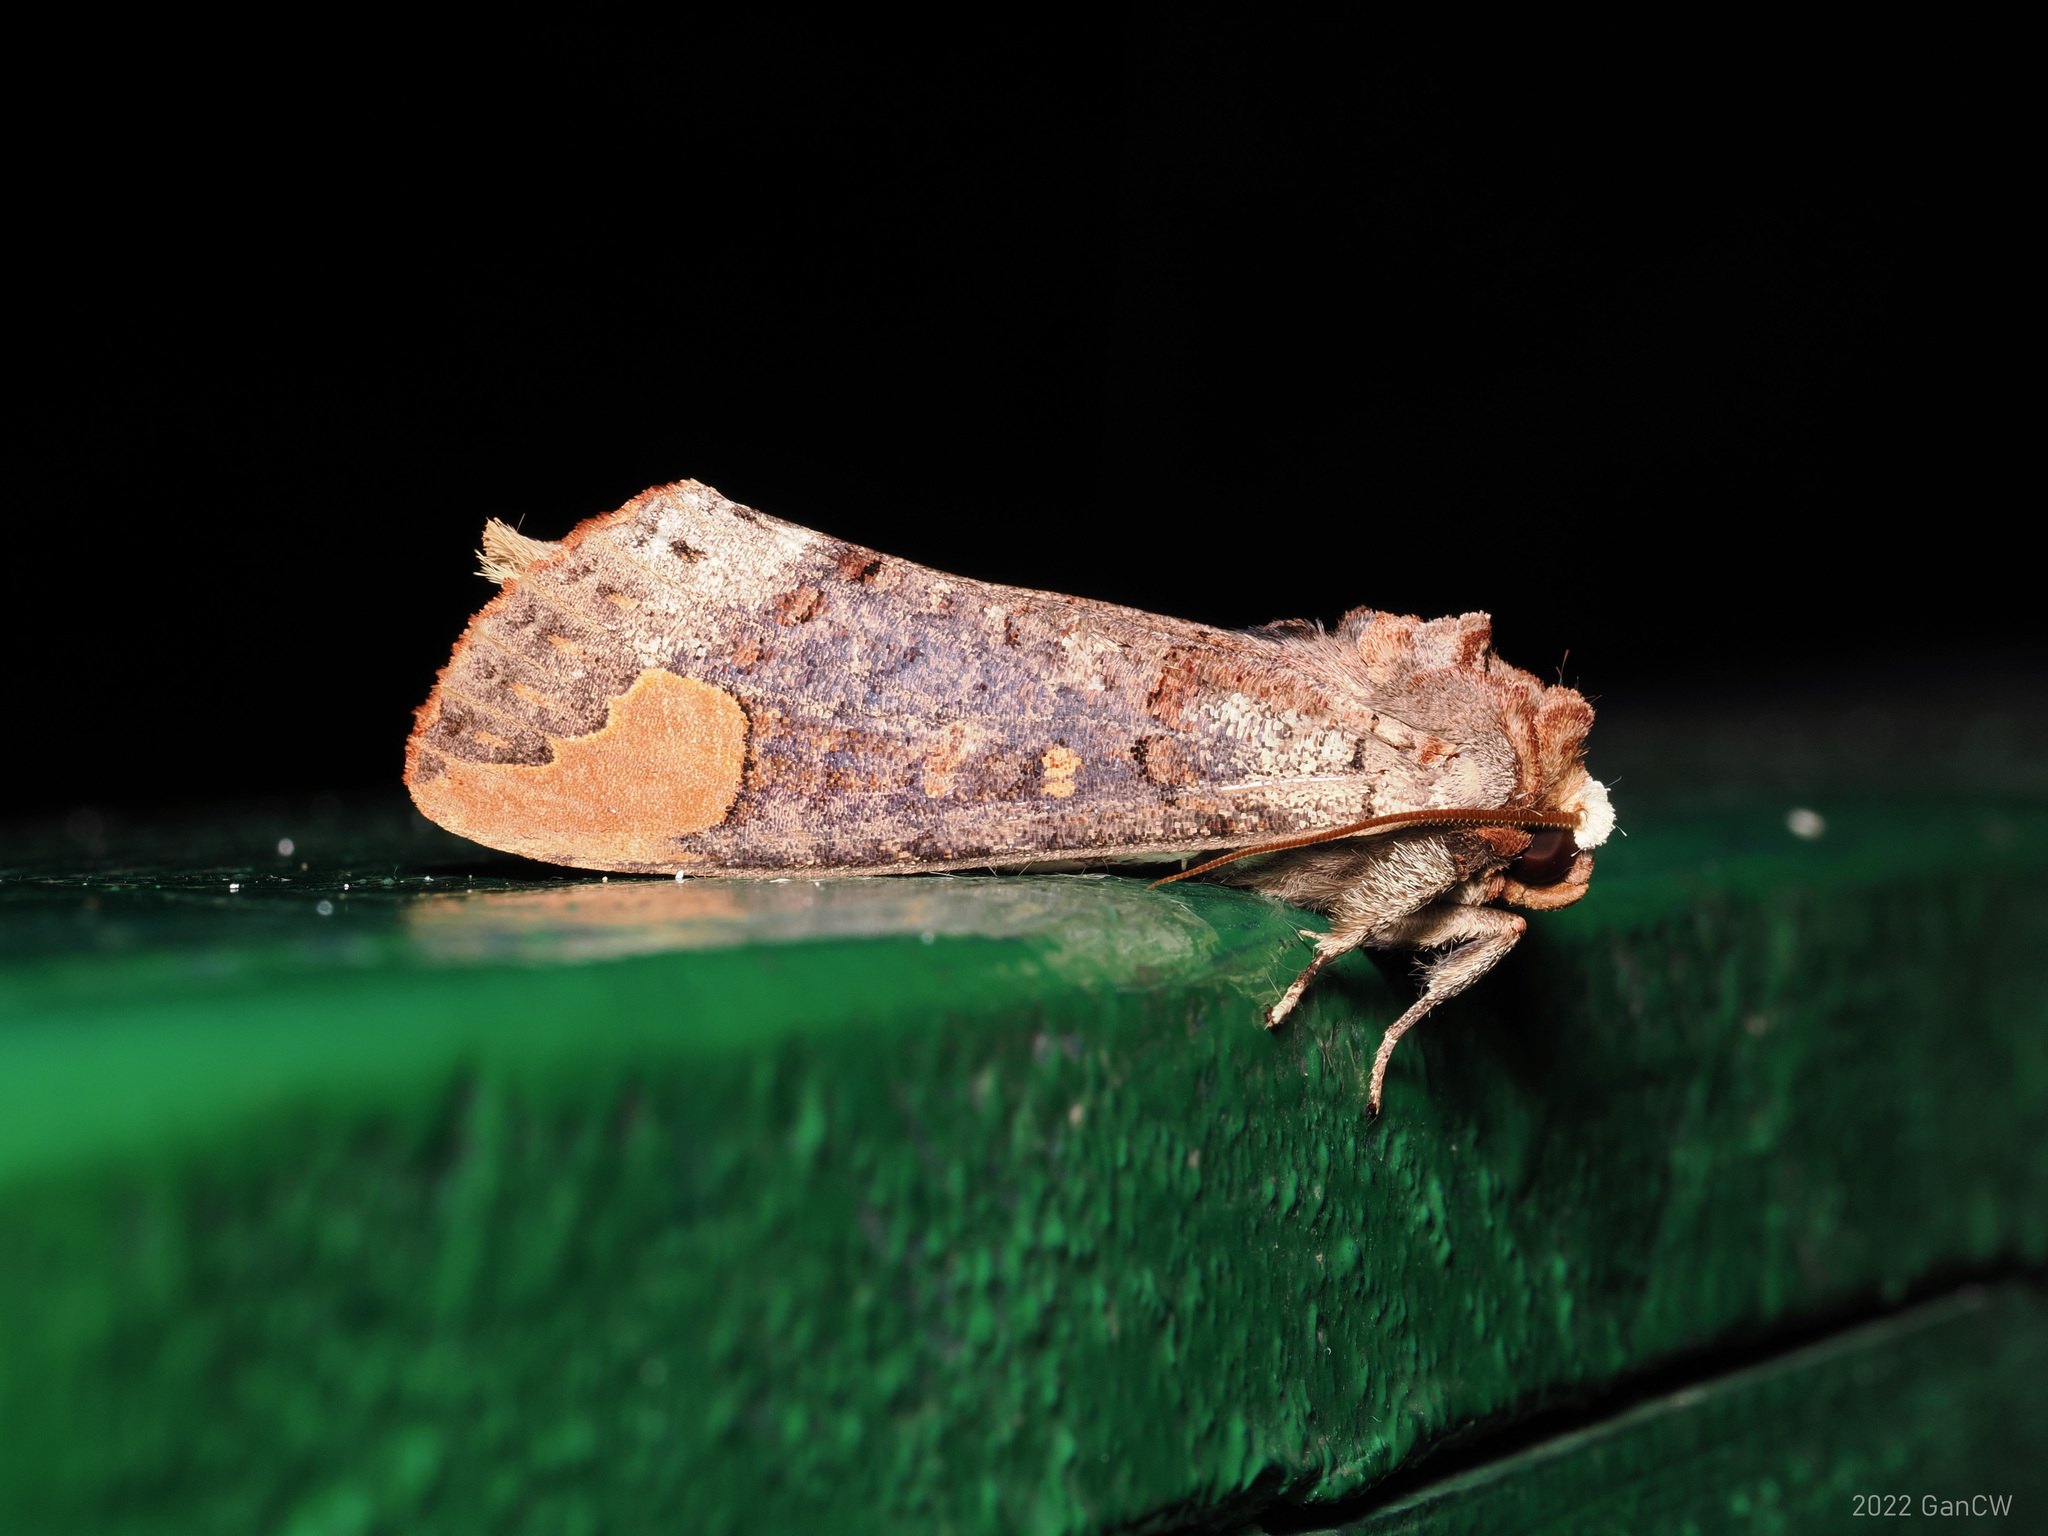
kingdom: Animalia
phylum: Arthropoda
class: Insecta
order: Lepidoptera
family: Notodontidae
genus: Phalera
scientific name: Phalera sundana
